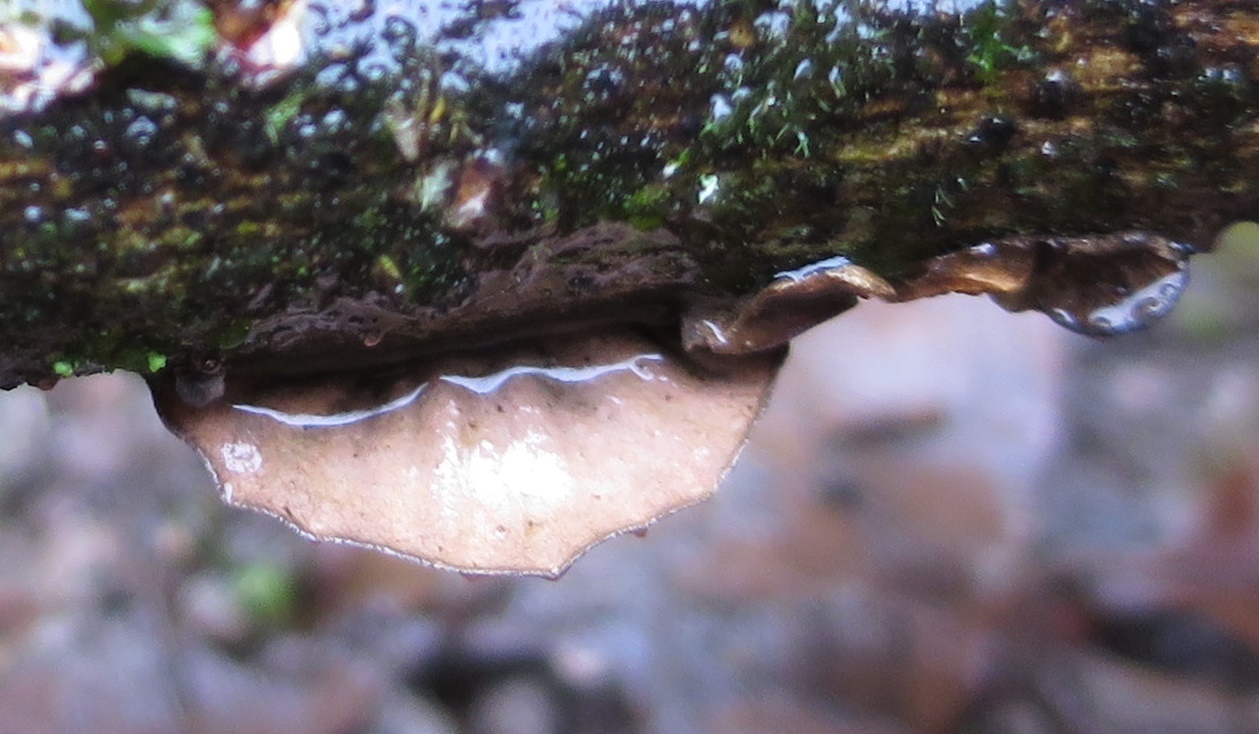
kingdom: Fungi
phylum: Basidiomycota
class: Agaricomycetes
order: Agaricales
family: Omphalotaceae
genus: Anthracophyllum
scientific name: Anthracophyllum archeri
